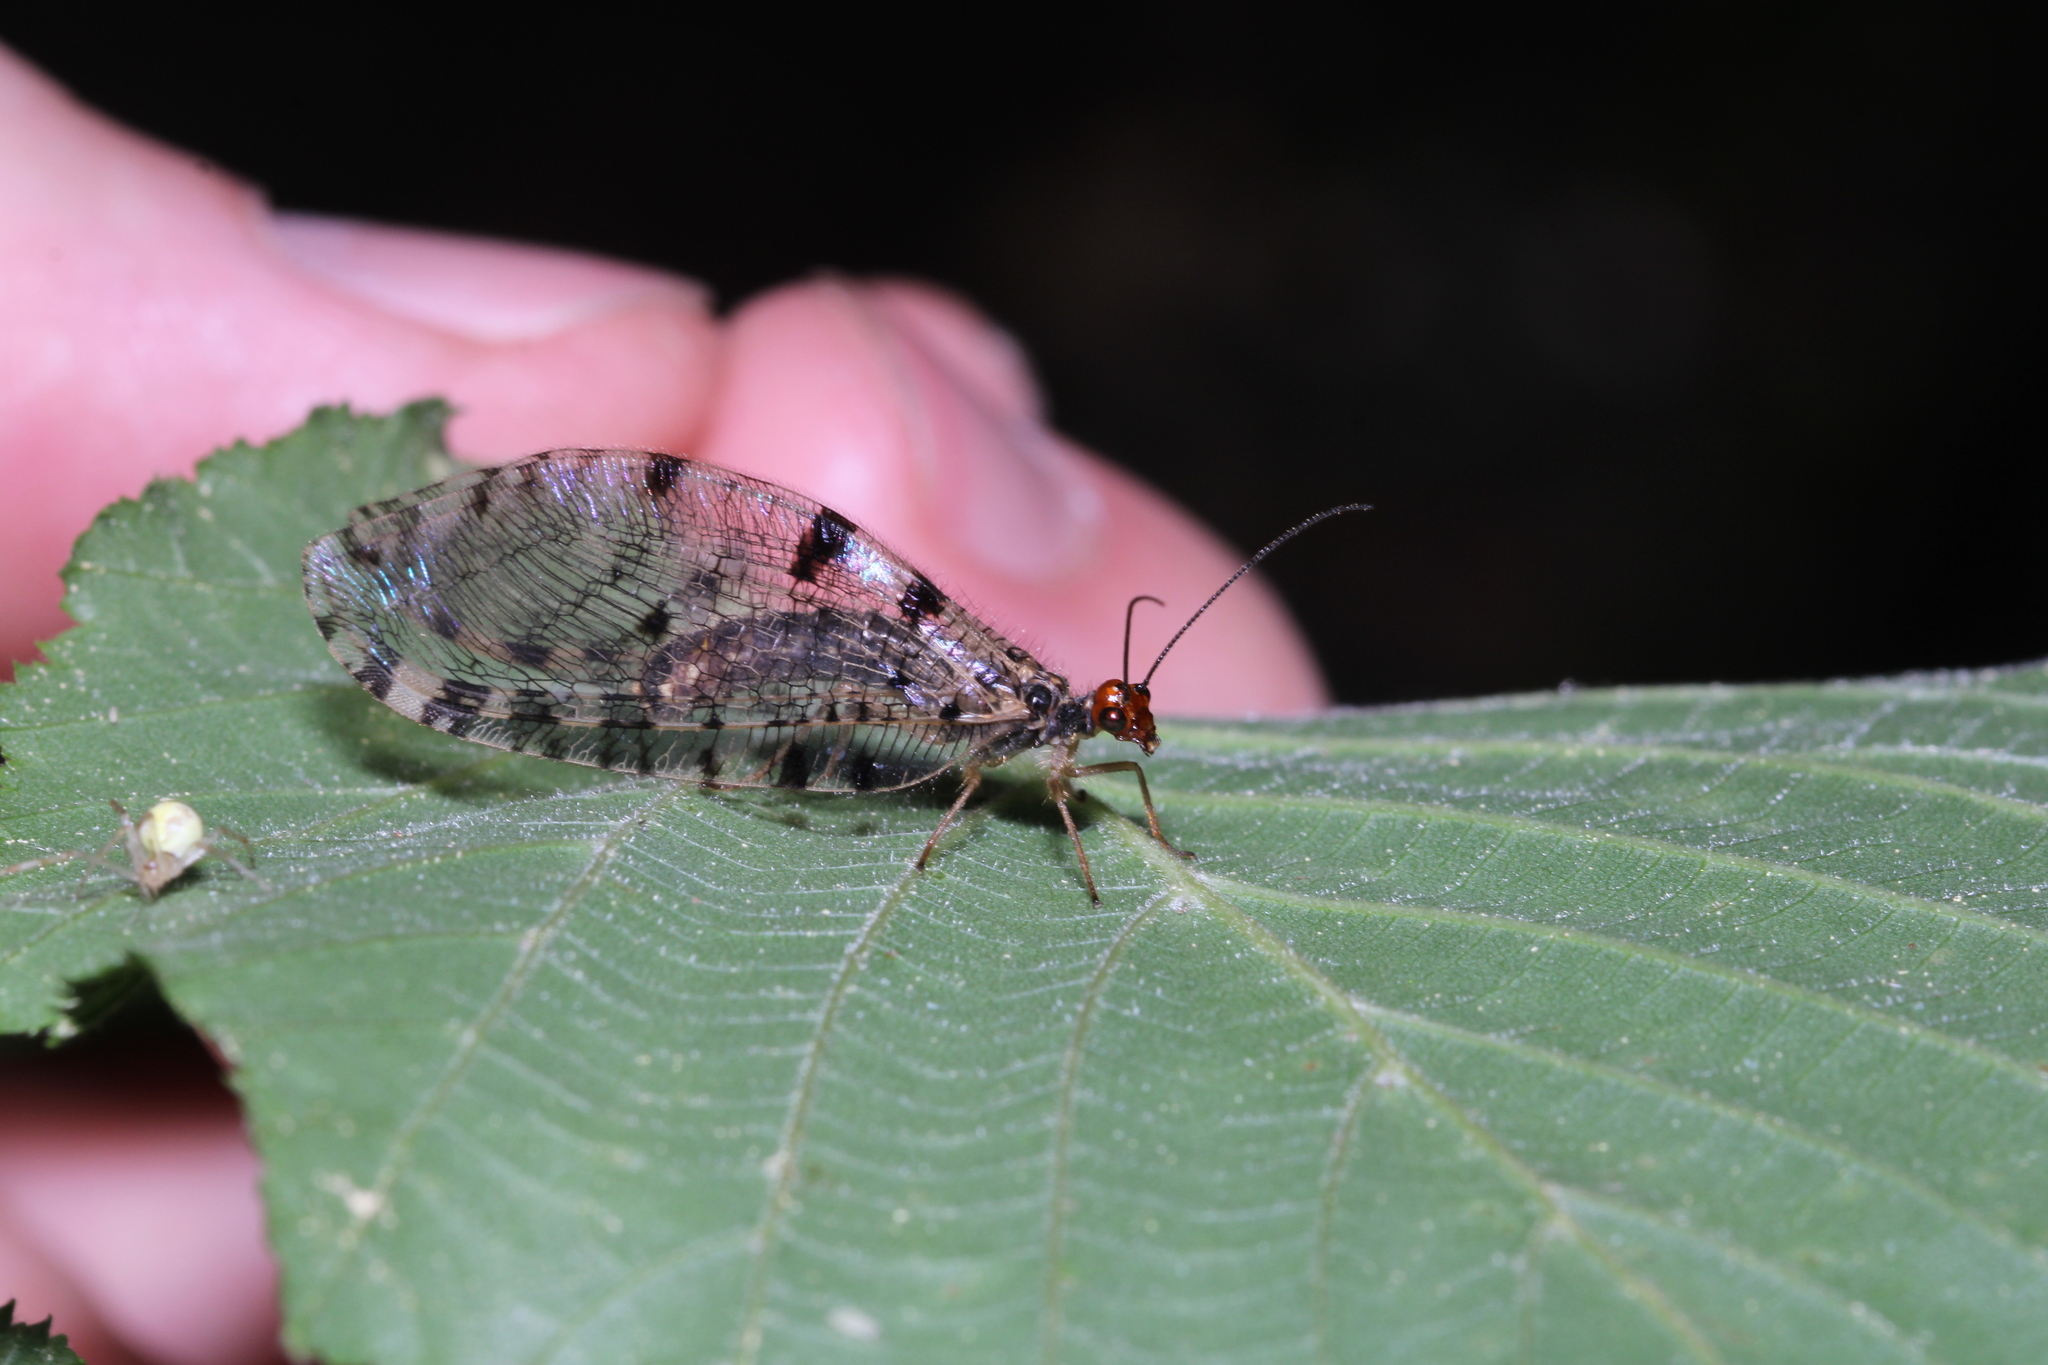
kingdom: Animalia
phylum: Arthropoda
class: Insecta
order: Neuroptera
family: Osmylidae
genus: Osmylus
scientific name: Osmylus fulvicephalus
